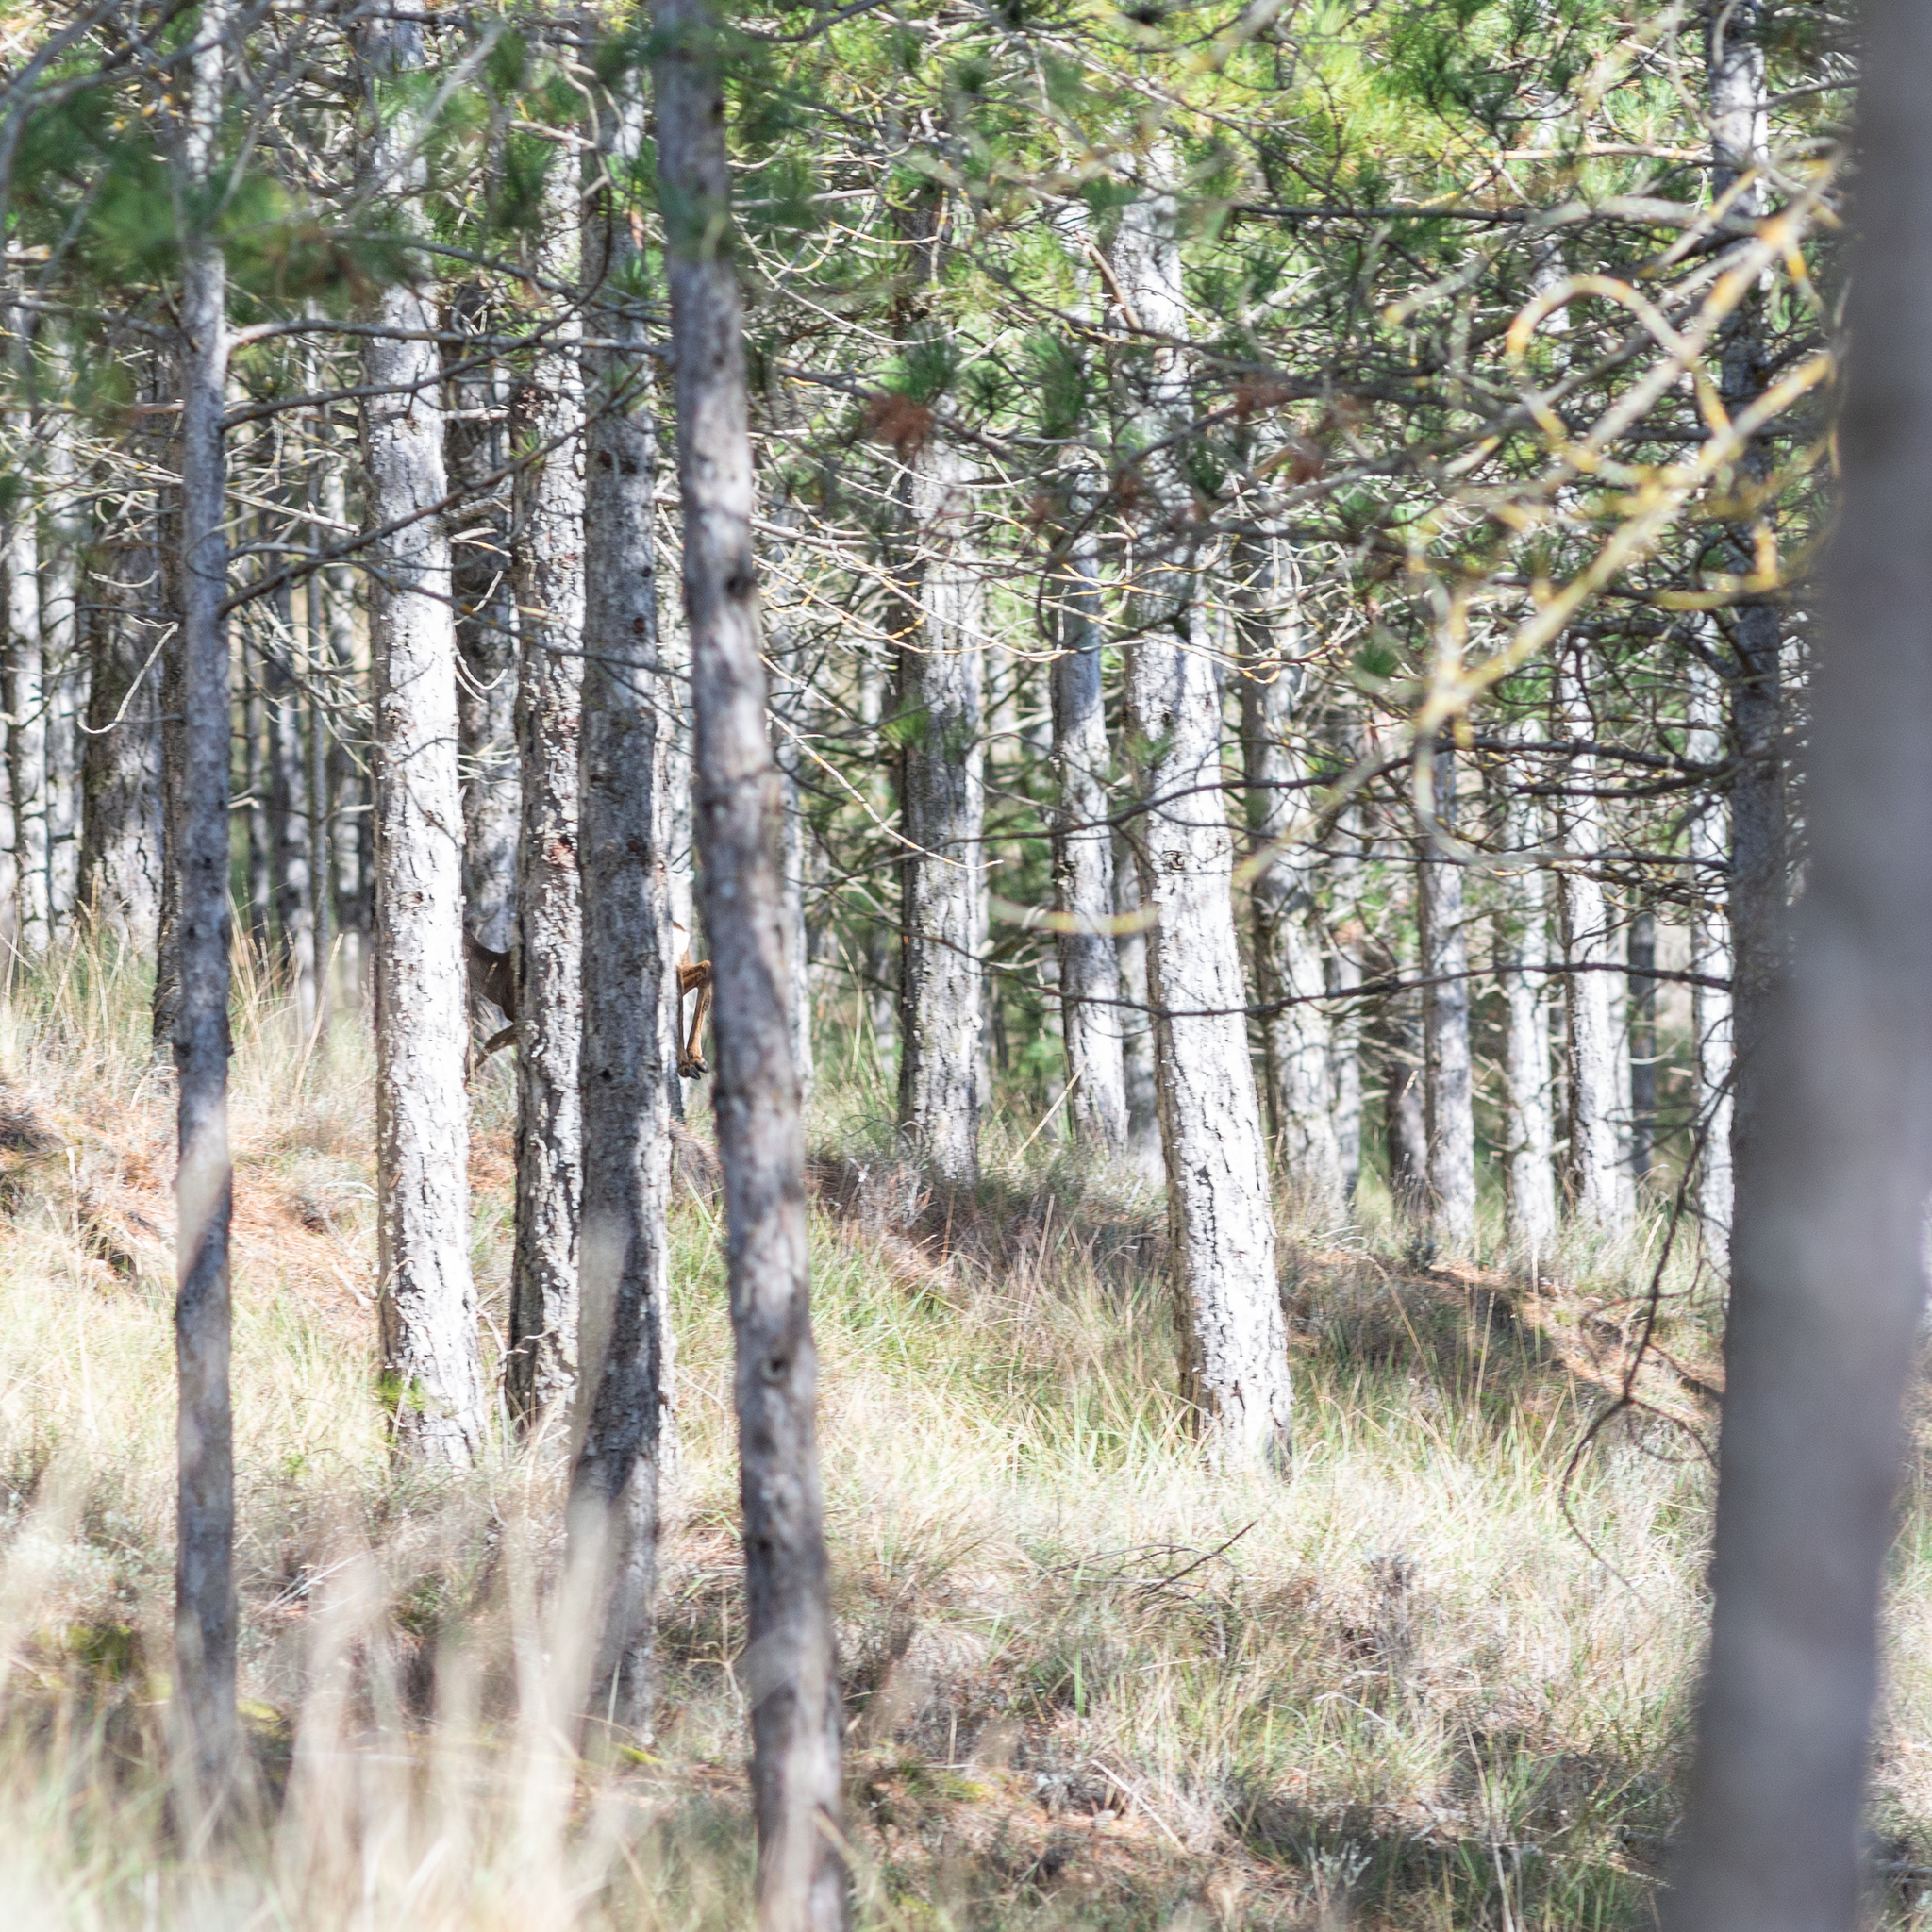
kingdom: Animalia
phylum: Chordata
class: Mammalia
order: Artiodactyla
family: Cervidae
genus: Capreolus
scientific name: Capreolus capreolus
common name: Western roe deer
